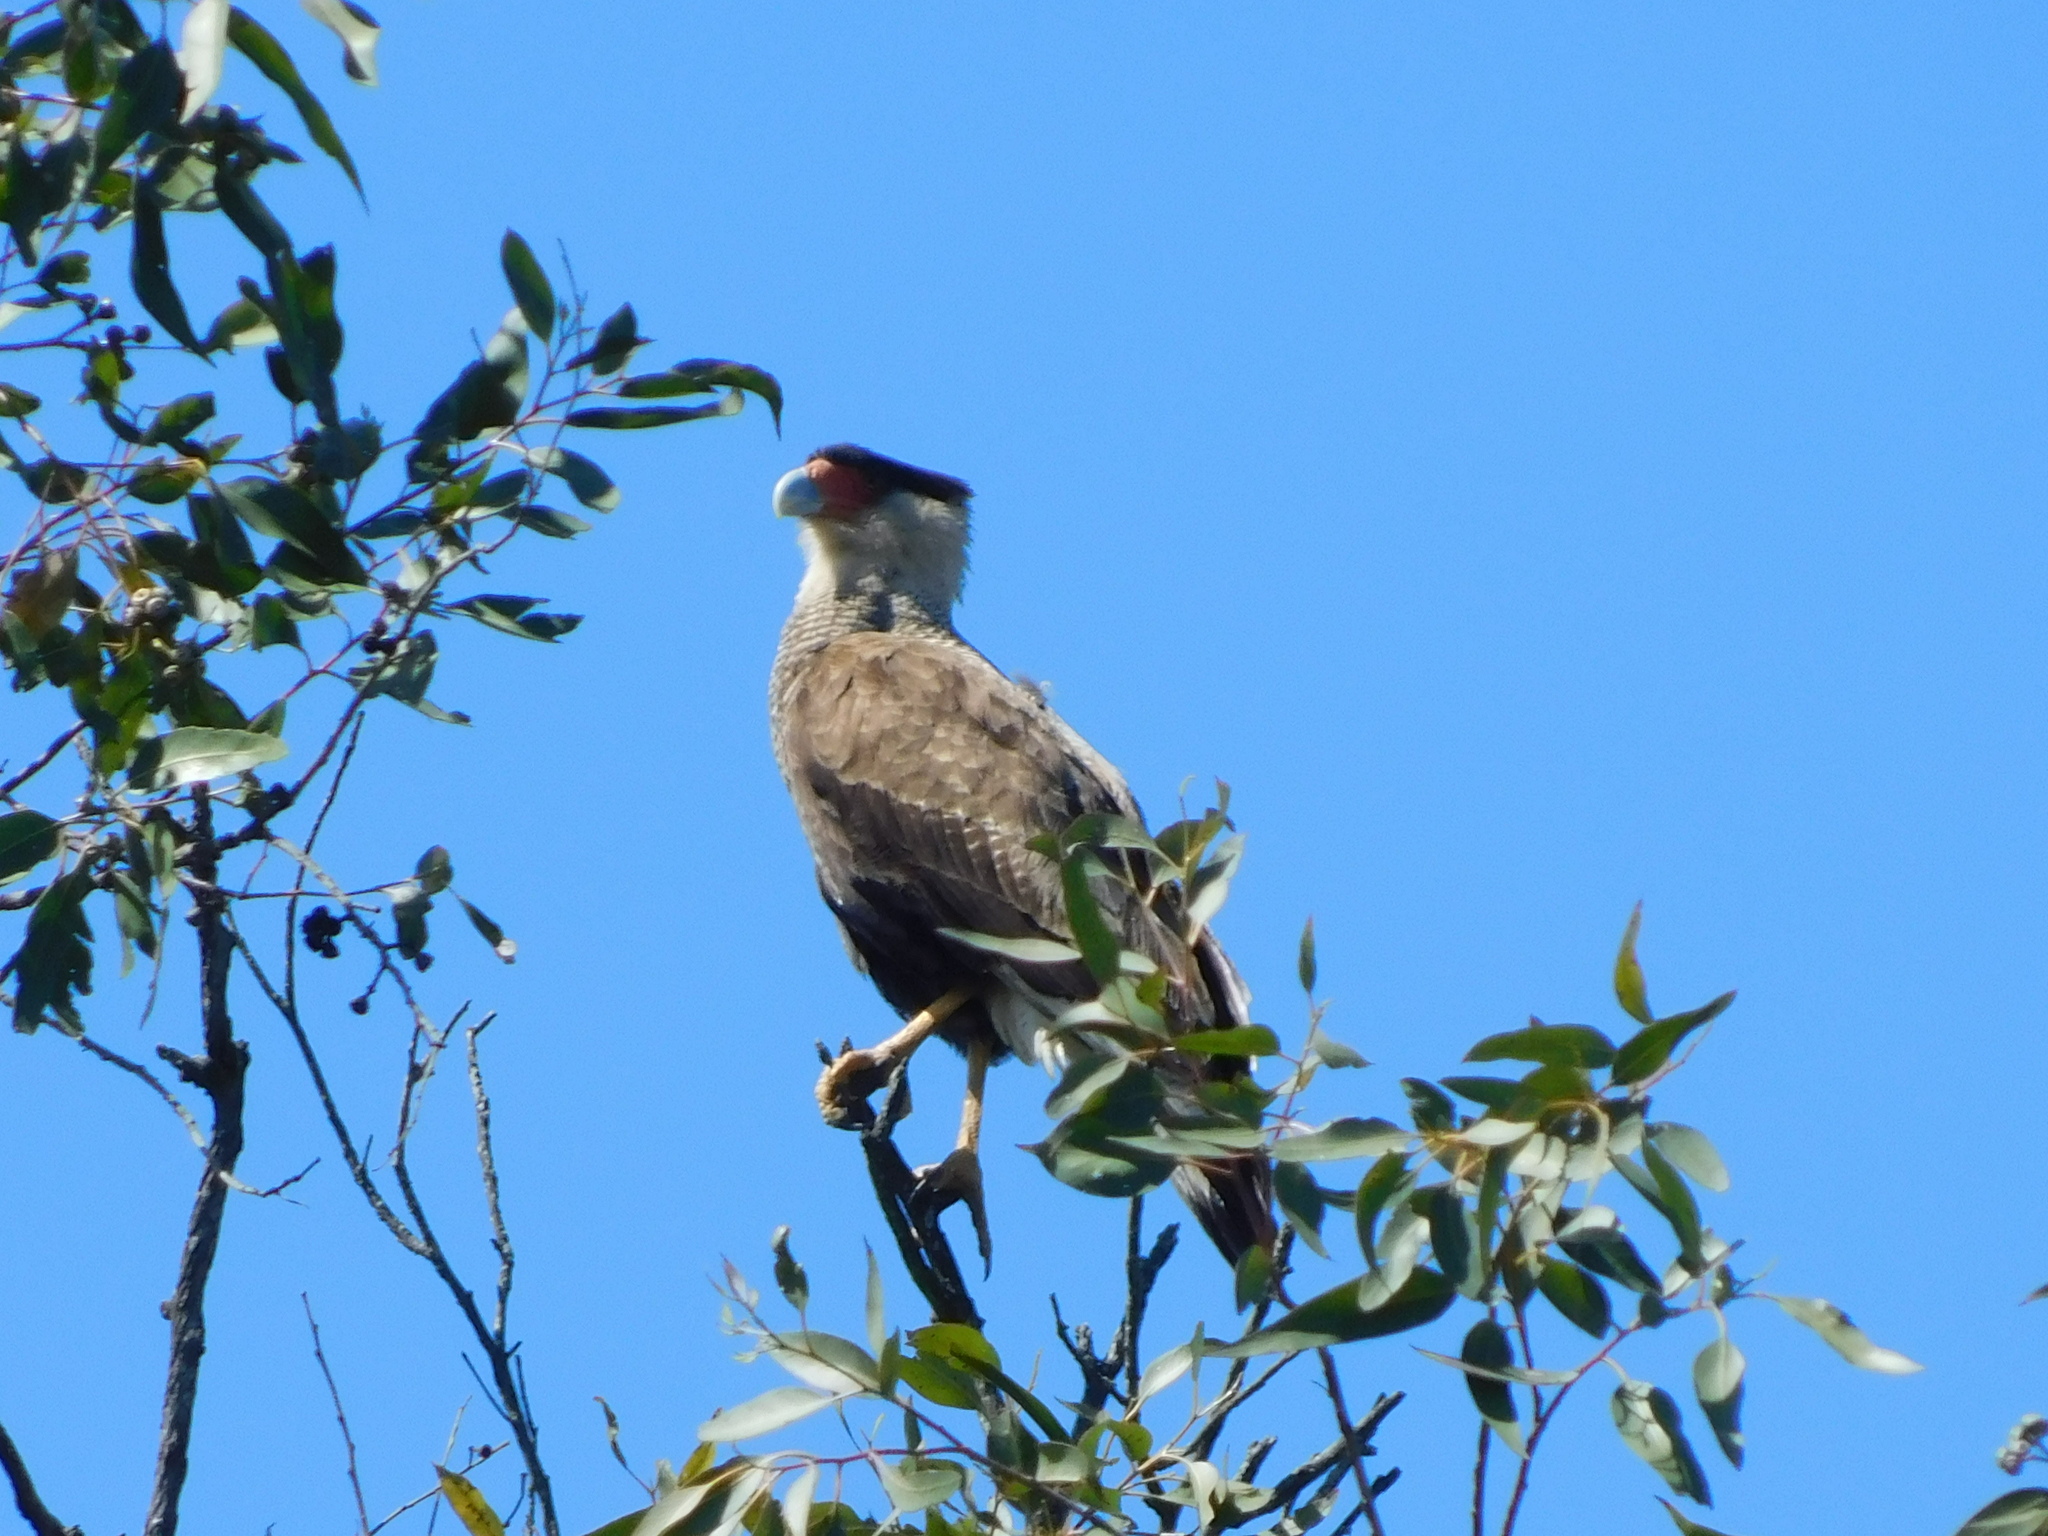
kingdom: Animalia
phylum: Chordata
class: Aves
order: Falconiformes
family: Falconidae
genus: Caracara
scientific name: Caracara plancus
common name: Southern caracara
